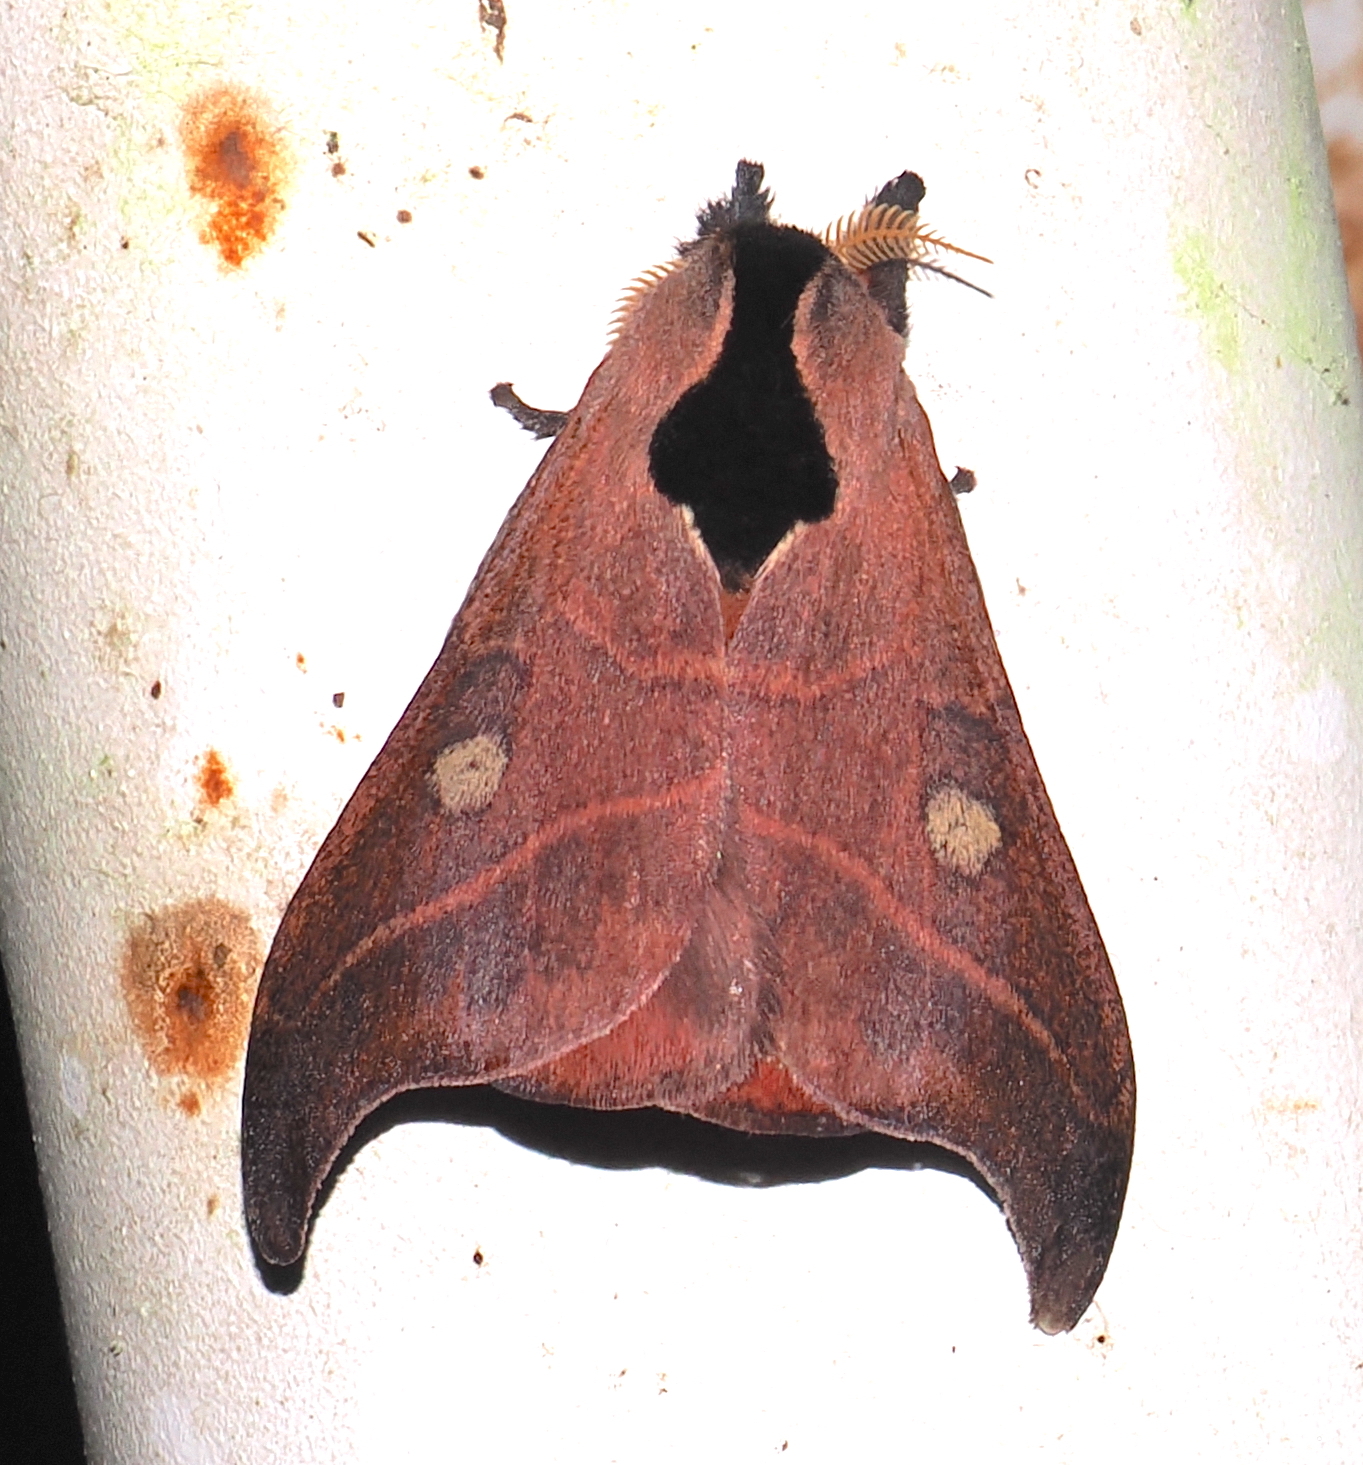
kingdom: Animalia
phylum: Arthropoda
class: Insecta
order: Lepidoptera
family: Saturniidae
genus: Hylesia
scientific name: Hylesia nanus
